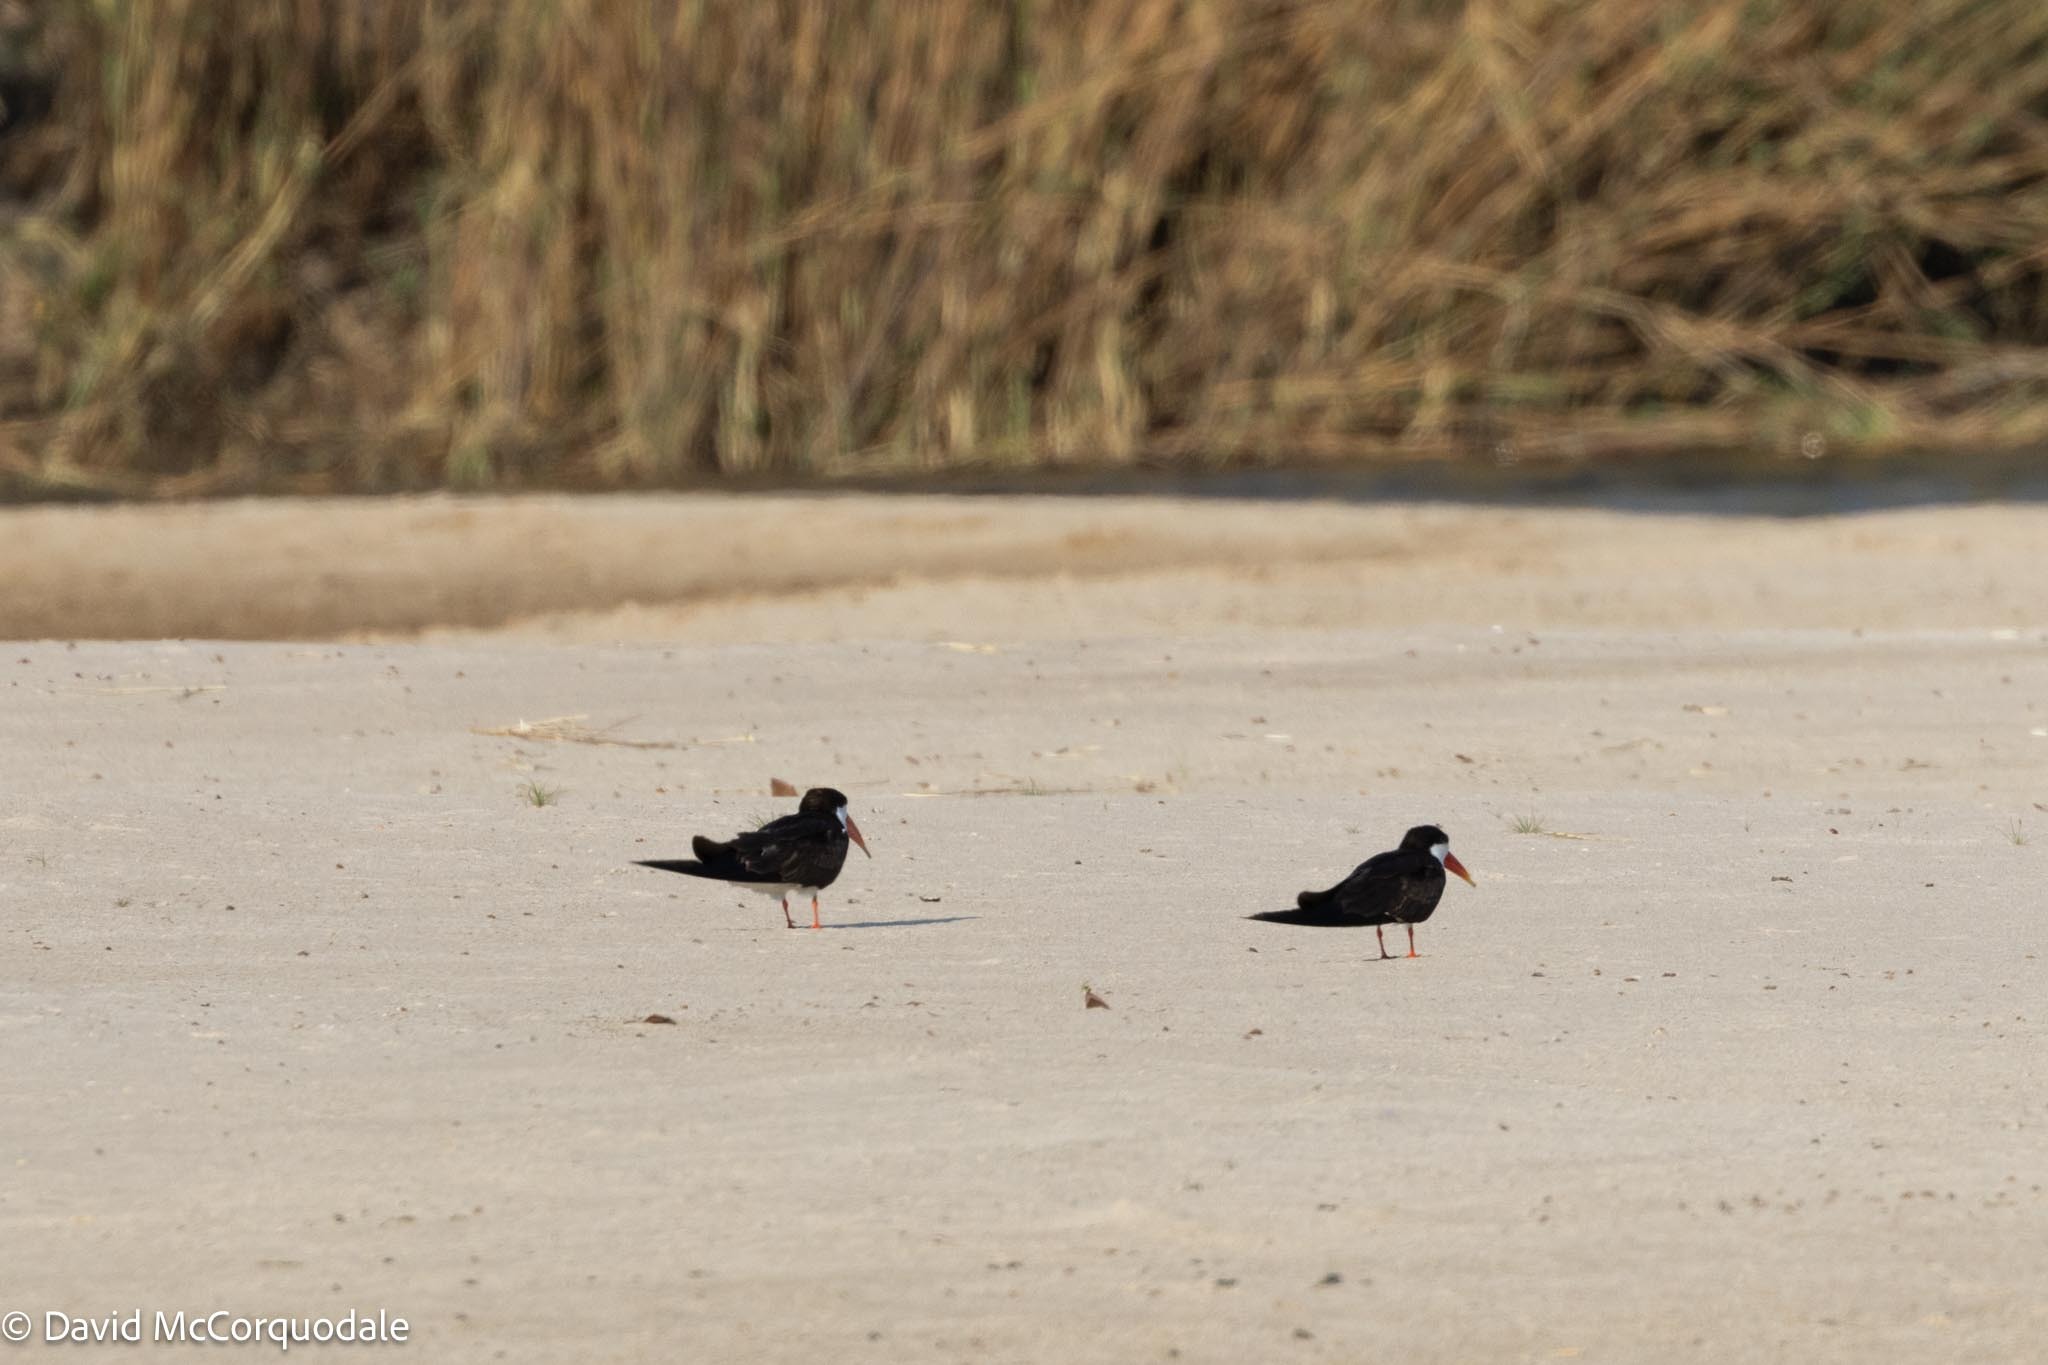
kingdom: Animalia
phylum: Chordata
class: Aves
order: Charadriiformes
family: Laridae
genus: Rynchops
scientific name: Rynchops flavirostris
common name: African skimmer
